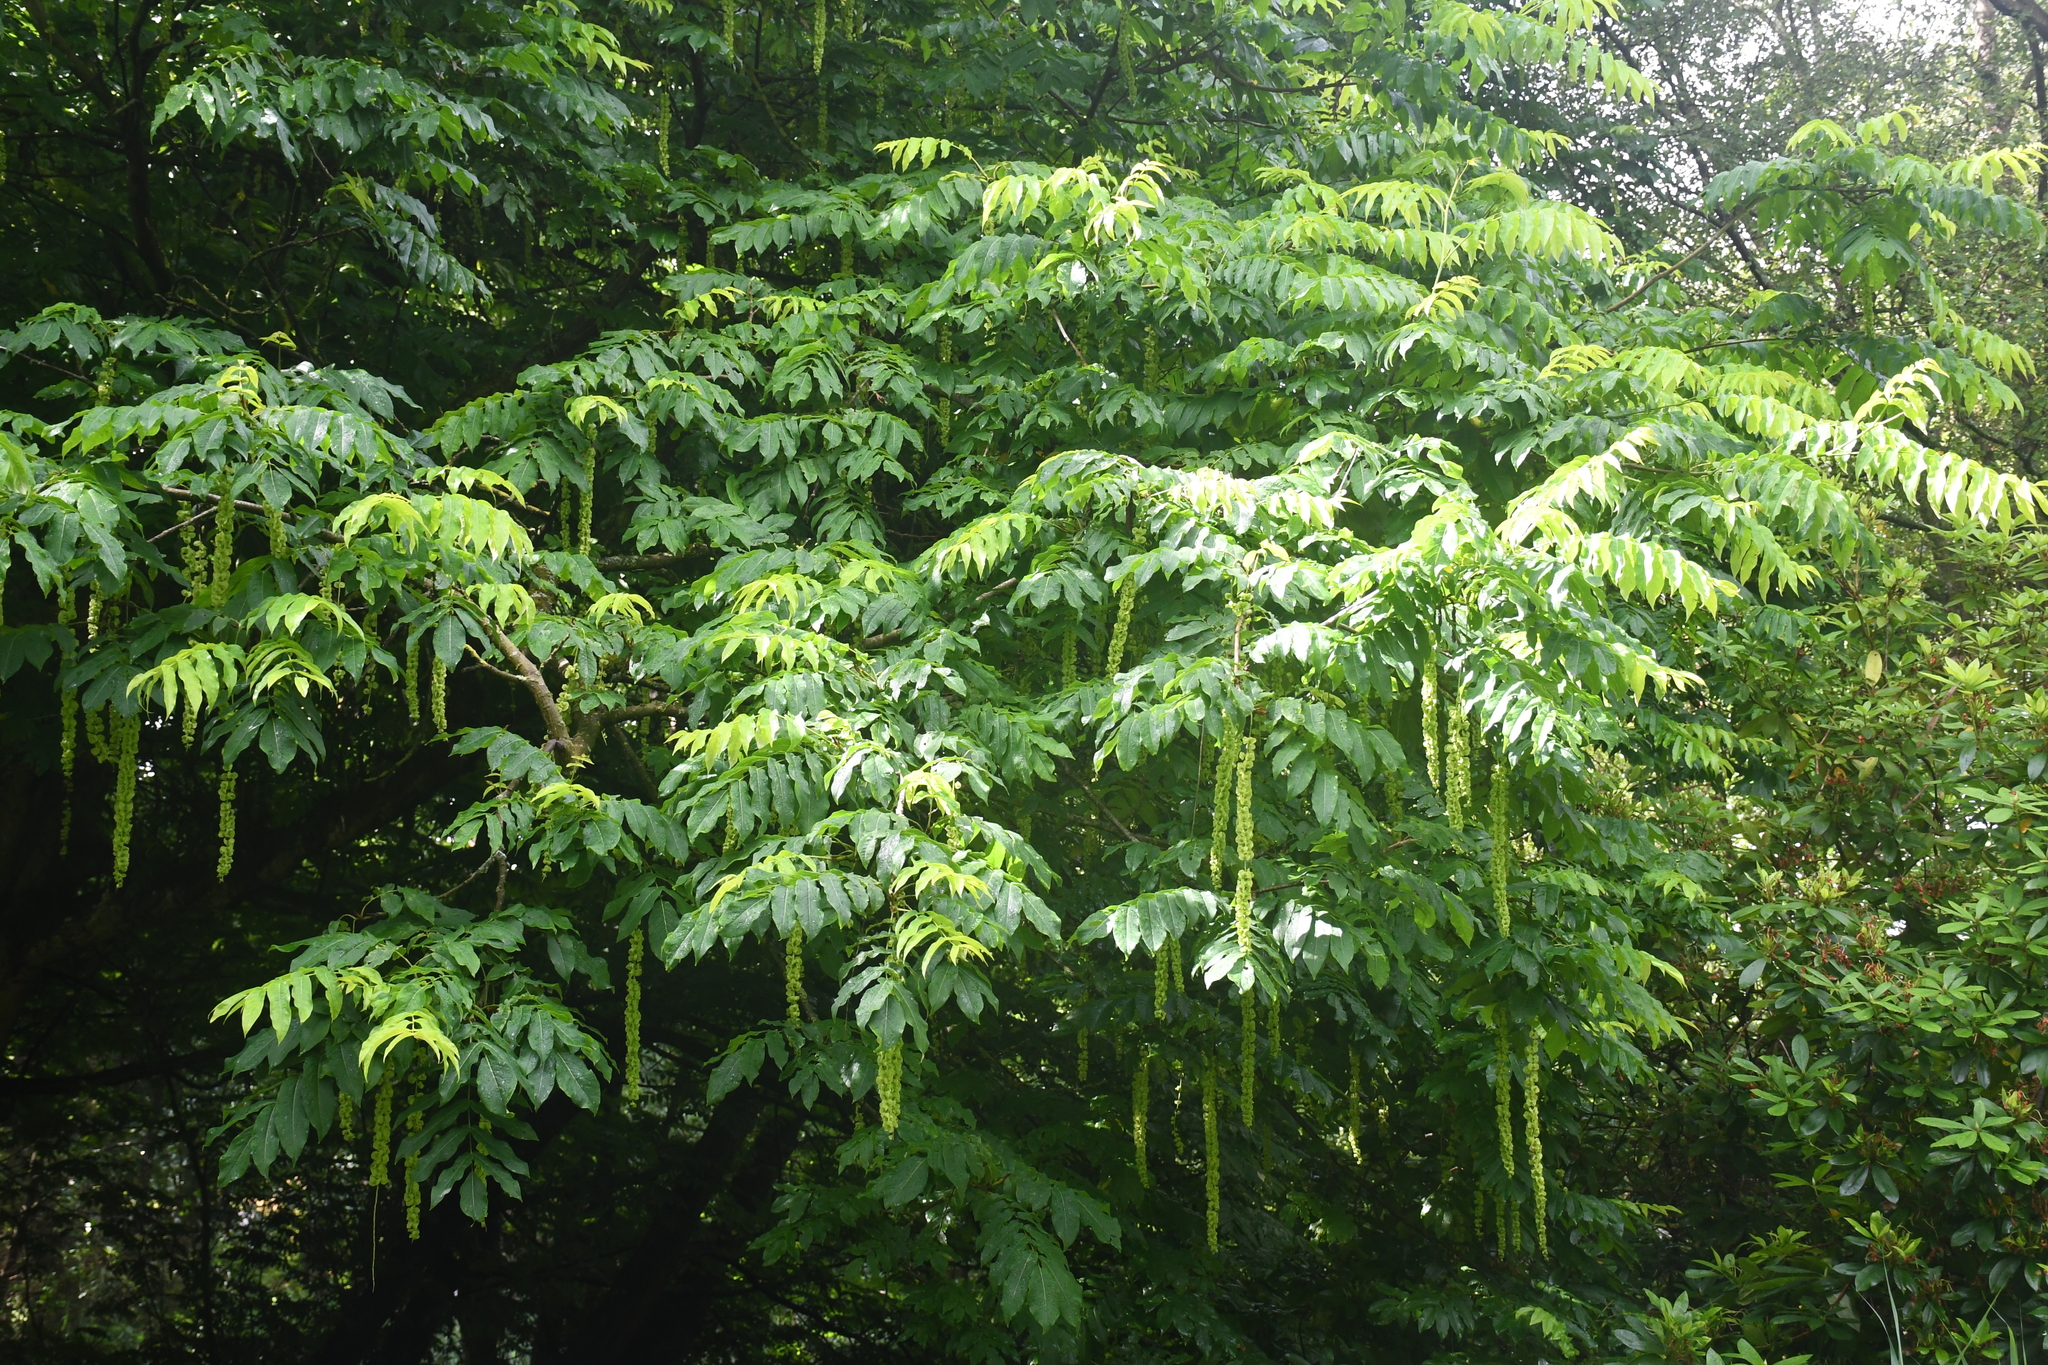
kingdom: Plantae
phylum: Tracheophyta
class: Magnoliopsida
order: Fagales
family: Juglandaceae
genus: Pterocarya
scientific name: Pterocarya fraxinifolia
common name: Caucasian wingnut
